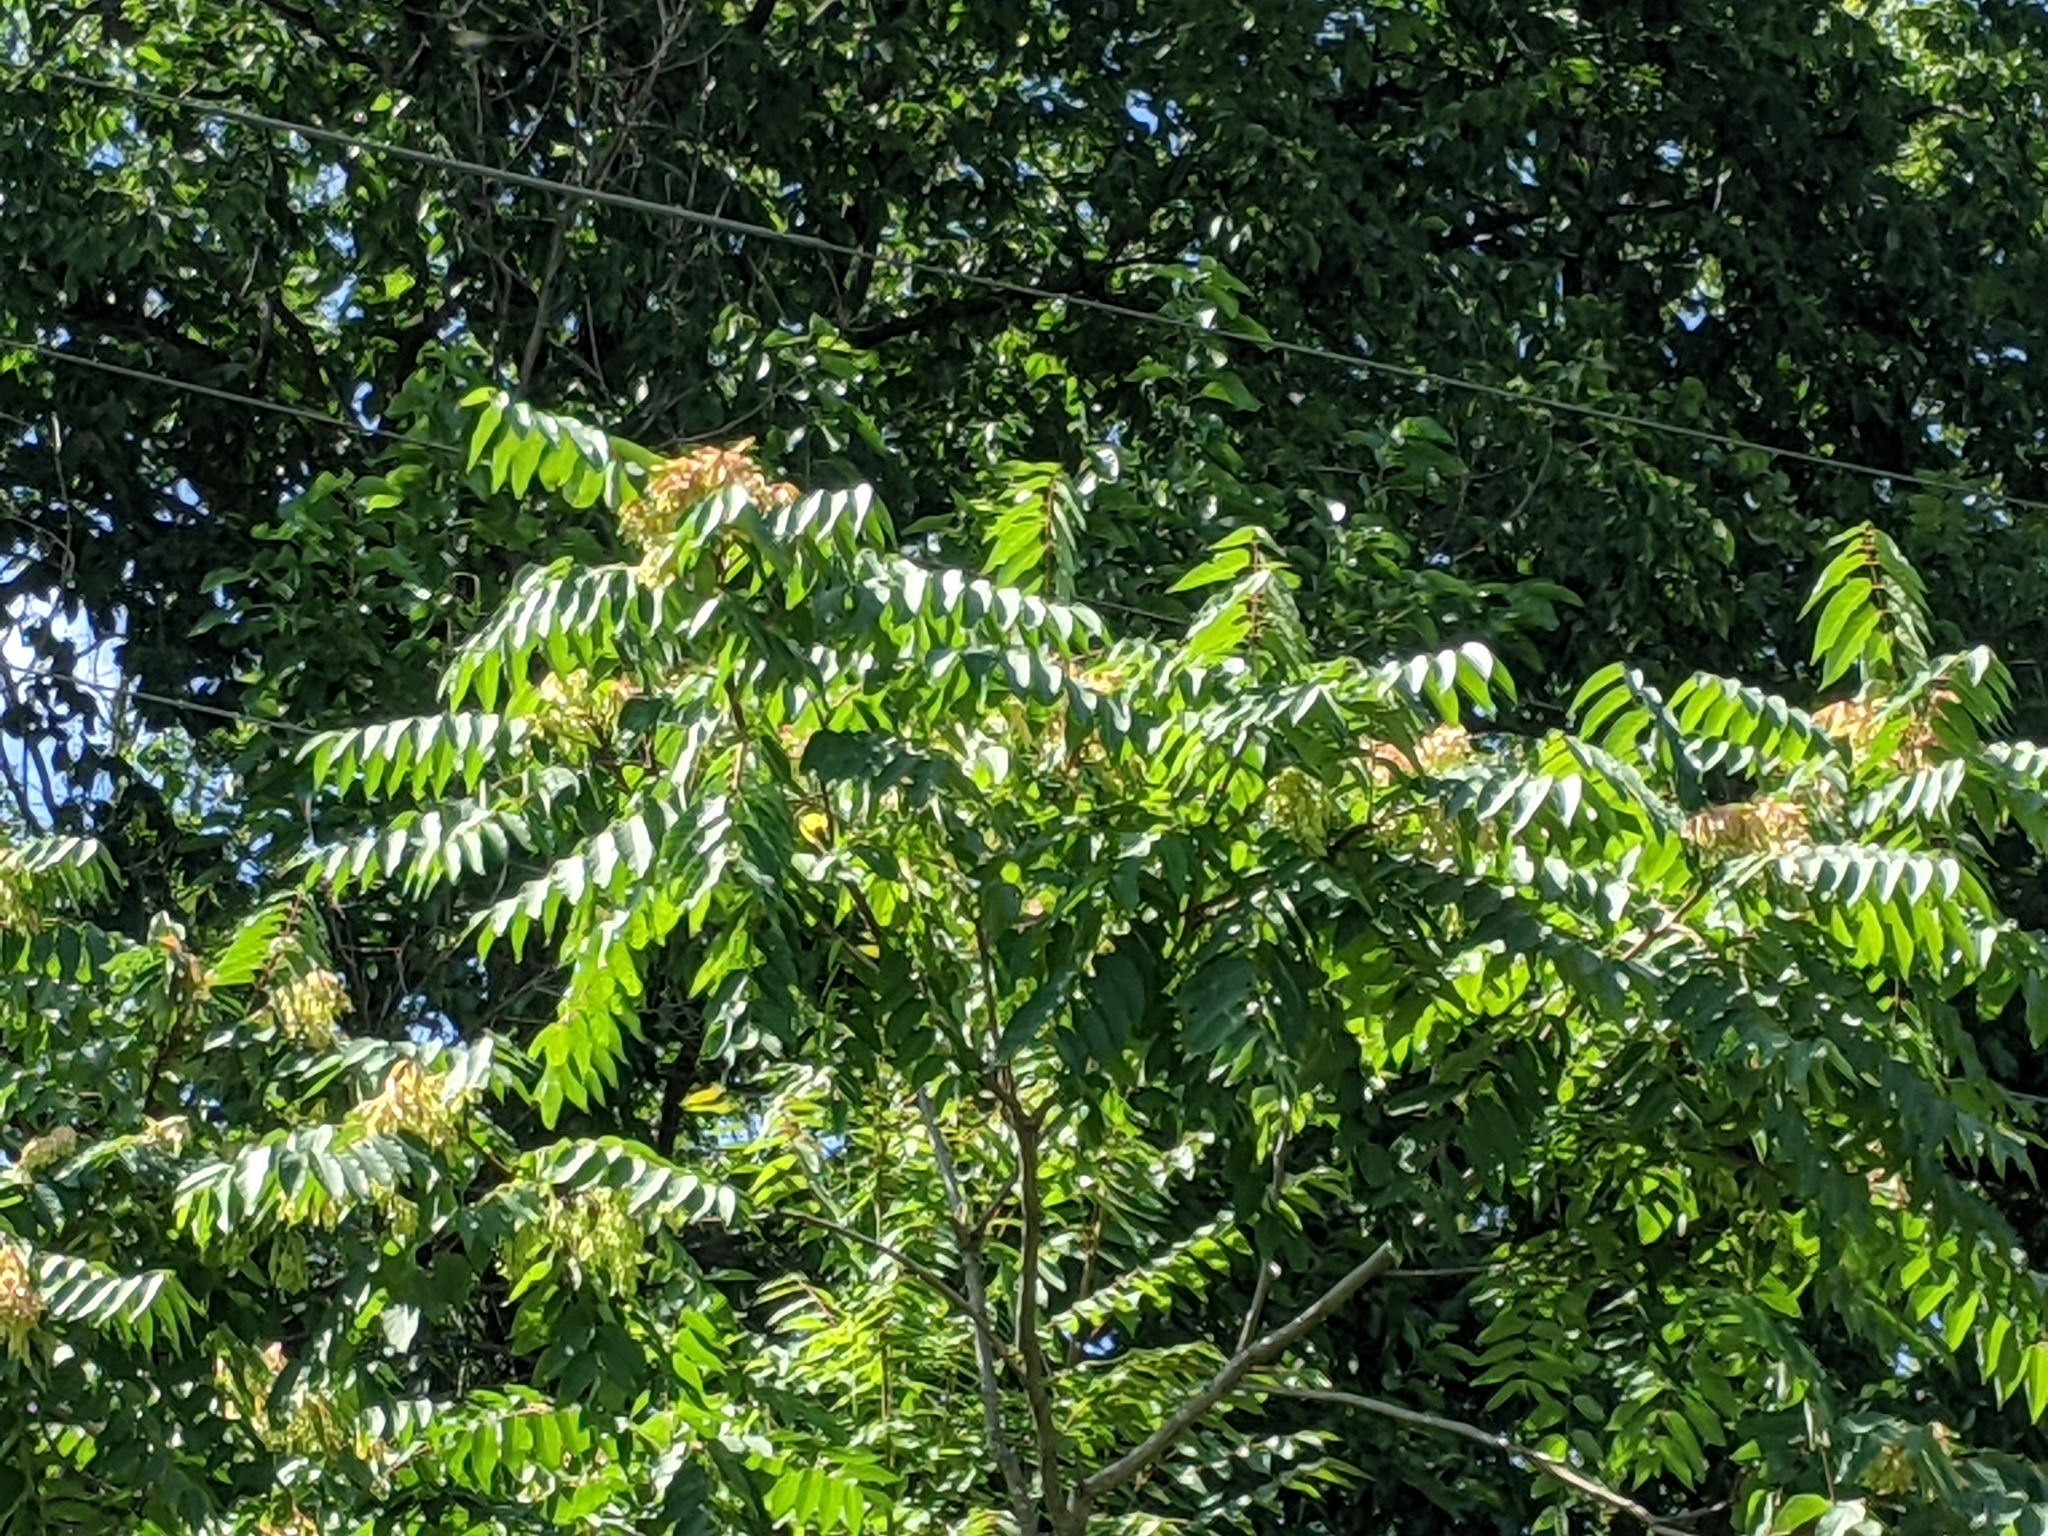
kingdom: Plantae
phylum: Tracheophyta
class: Magnoliopsida
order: Sapindales
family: Simaroubaceae
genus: Ailanthus
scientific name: Ailanthus altissima
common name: Tree-of-heaven
